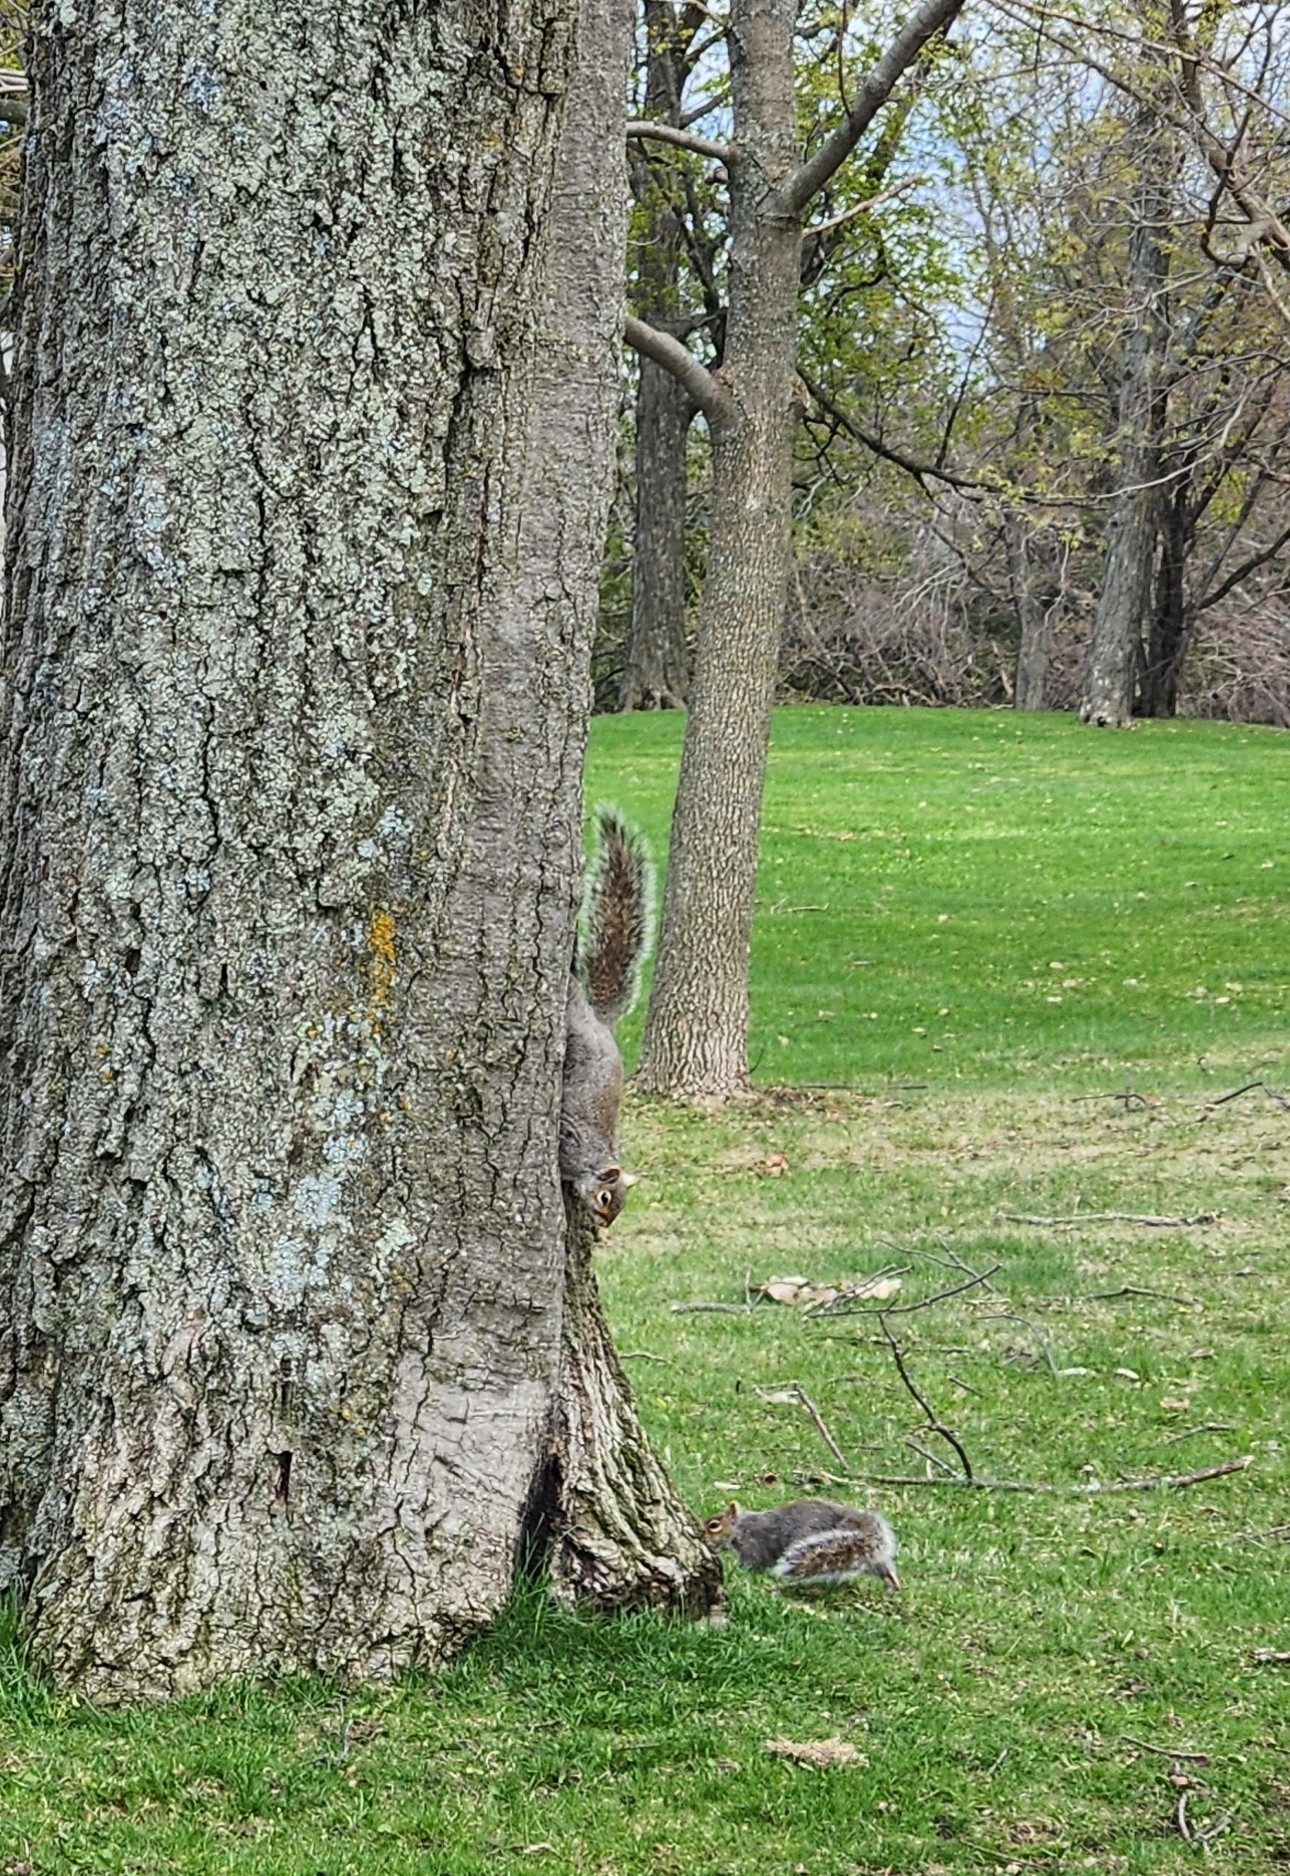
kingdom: Animalia
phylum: Chordata
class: Mammalia
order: Rodentia
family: Sciuridae
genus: Sciurus
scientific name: Sciurus carolinensis
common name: Eastern gray squirrel
